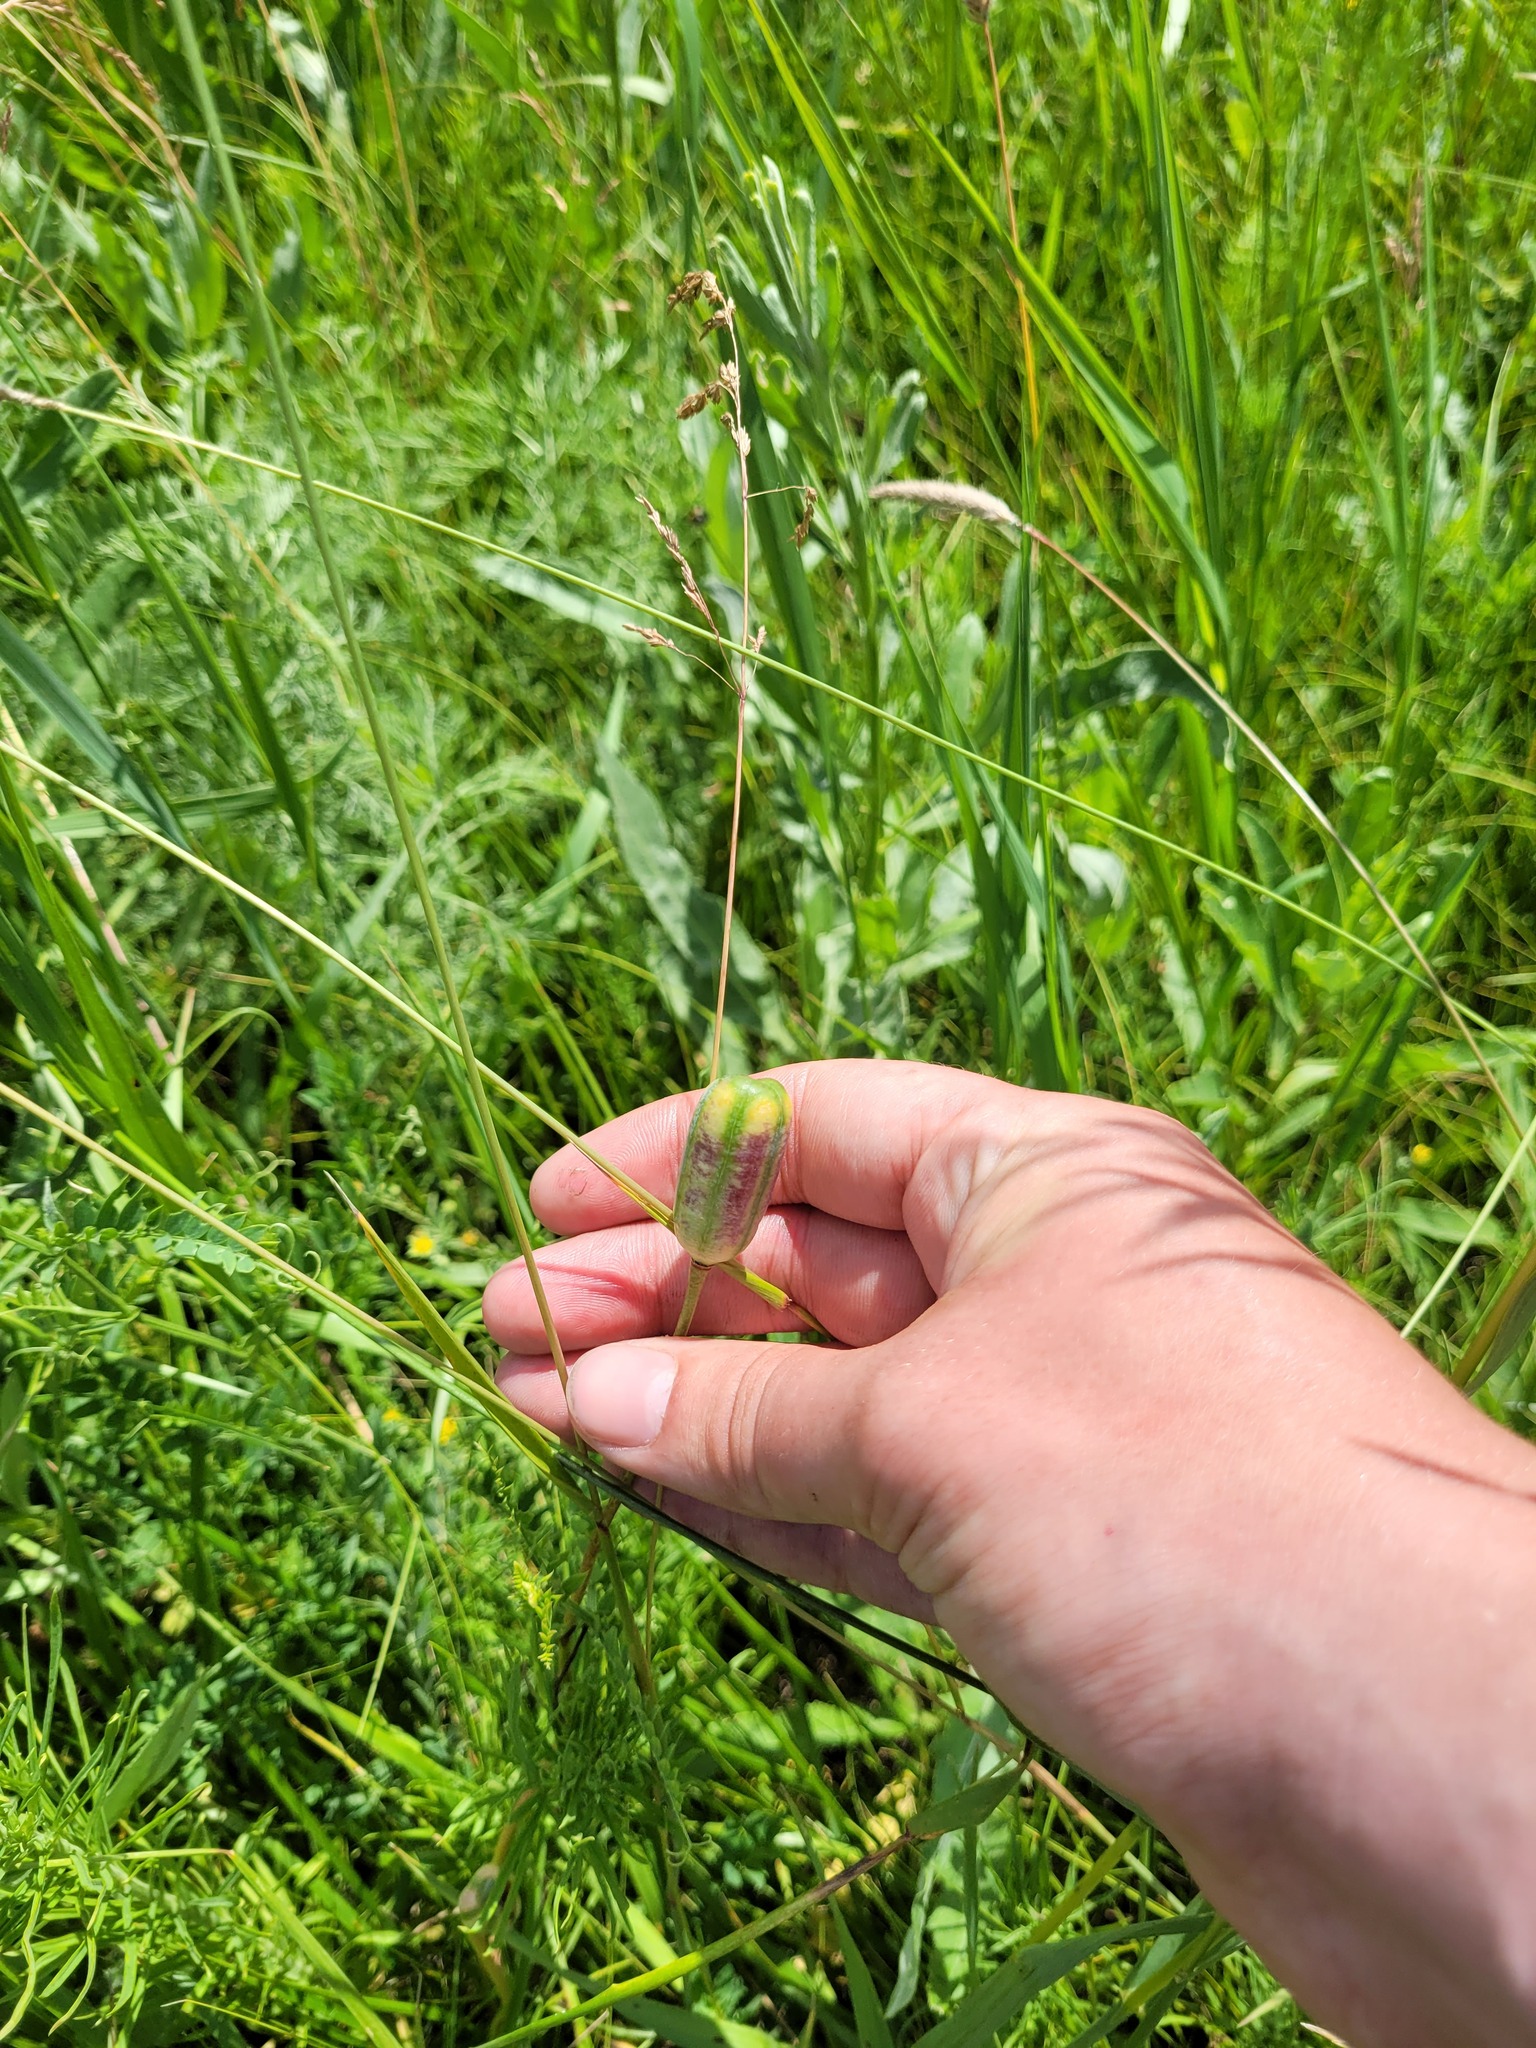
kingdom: Plantae
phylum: Tracheophyta
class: Liliopsida
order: Liliales
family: Liliaceae
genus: Fritillaria
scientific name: Fritillaria meleagroides
